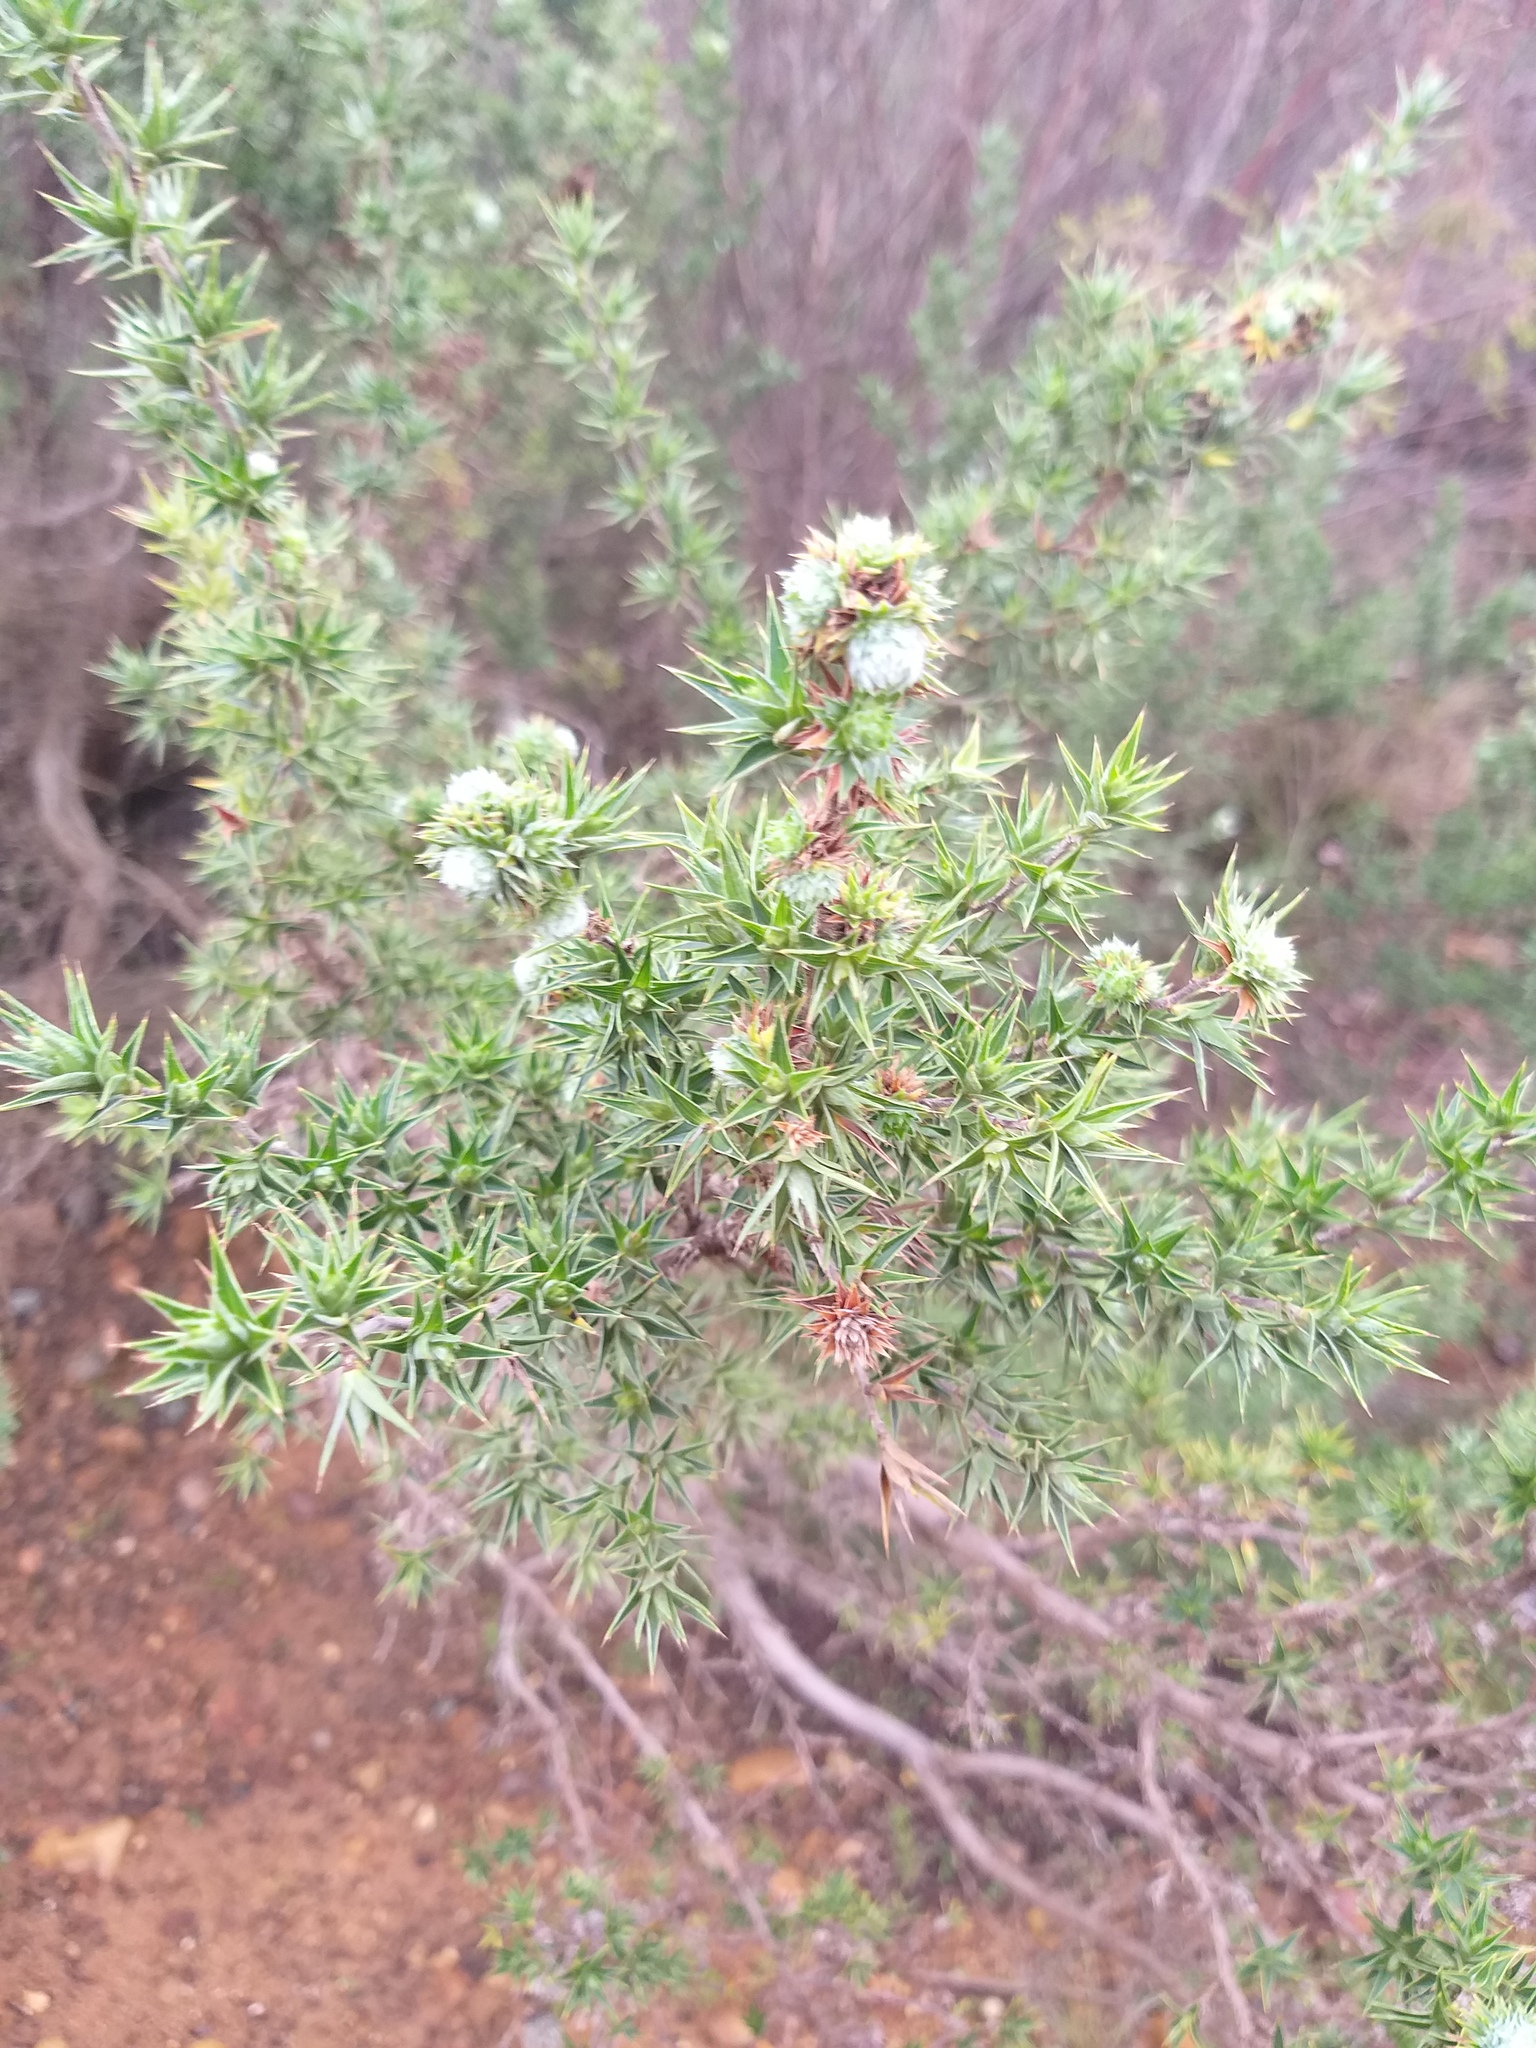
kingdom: Plantae
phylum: Tracheophyta
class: Magnoliopsida
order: Rosales
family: Rosaceae
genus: Cliffortia
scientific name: Cliffortia ruscifolia
